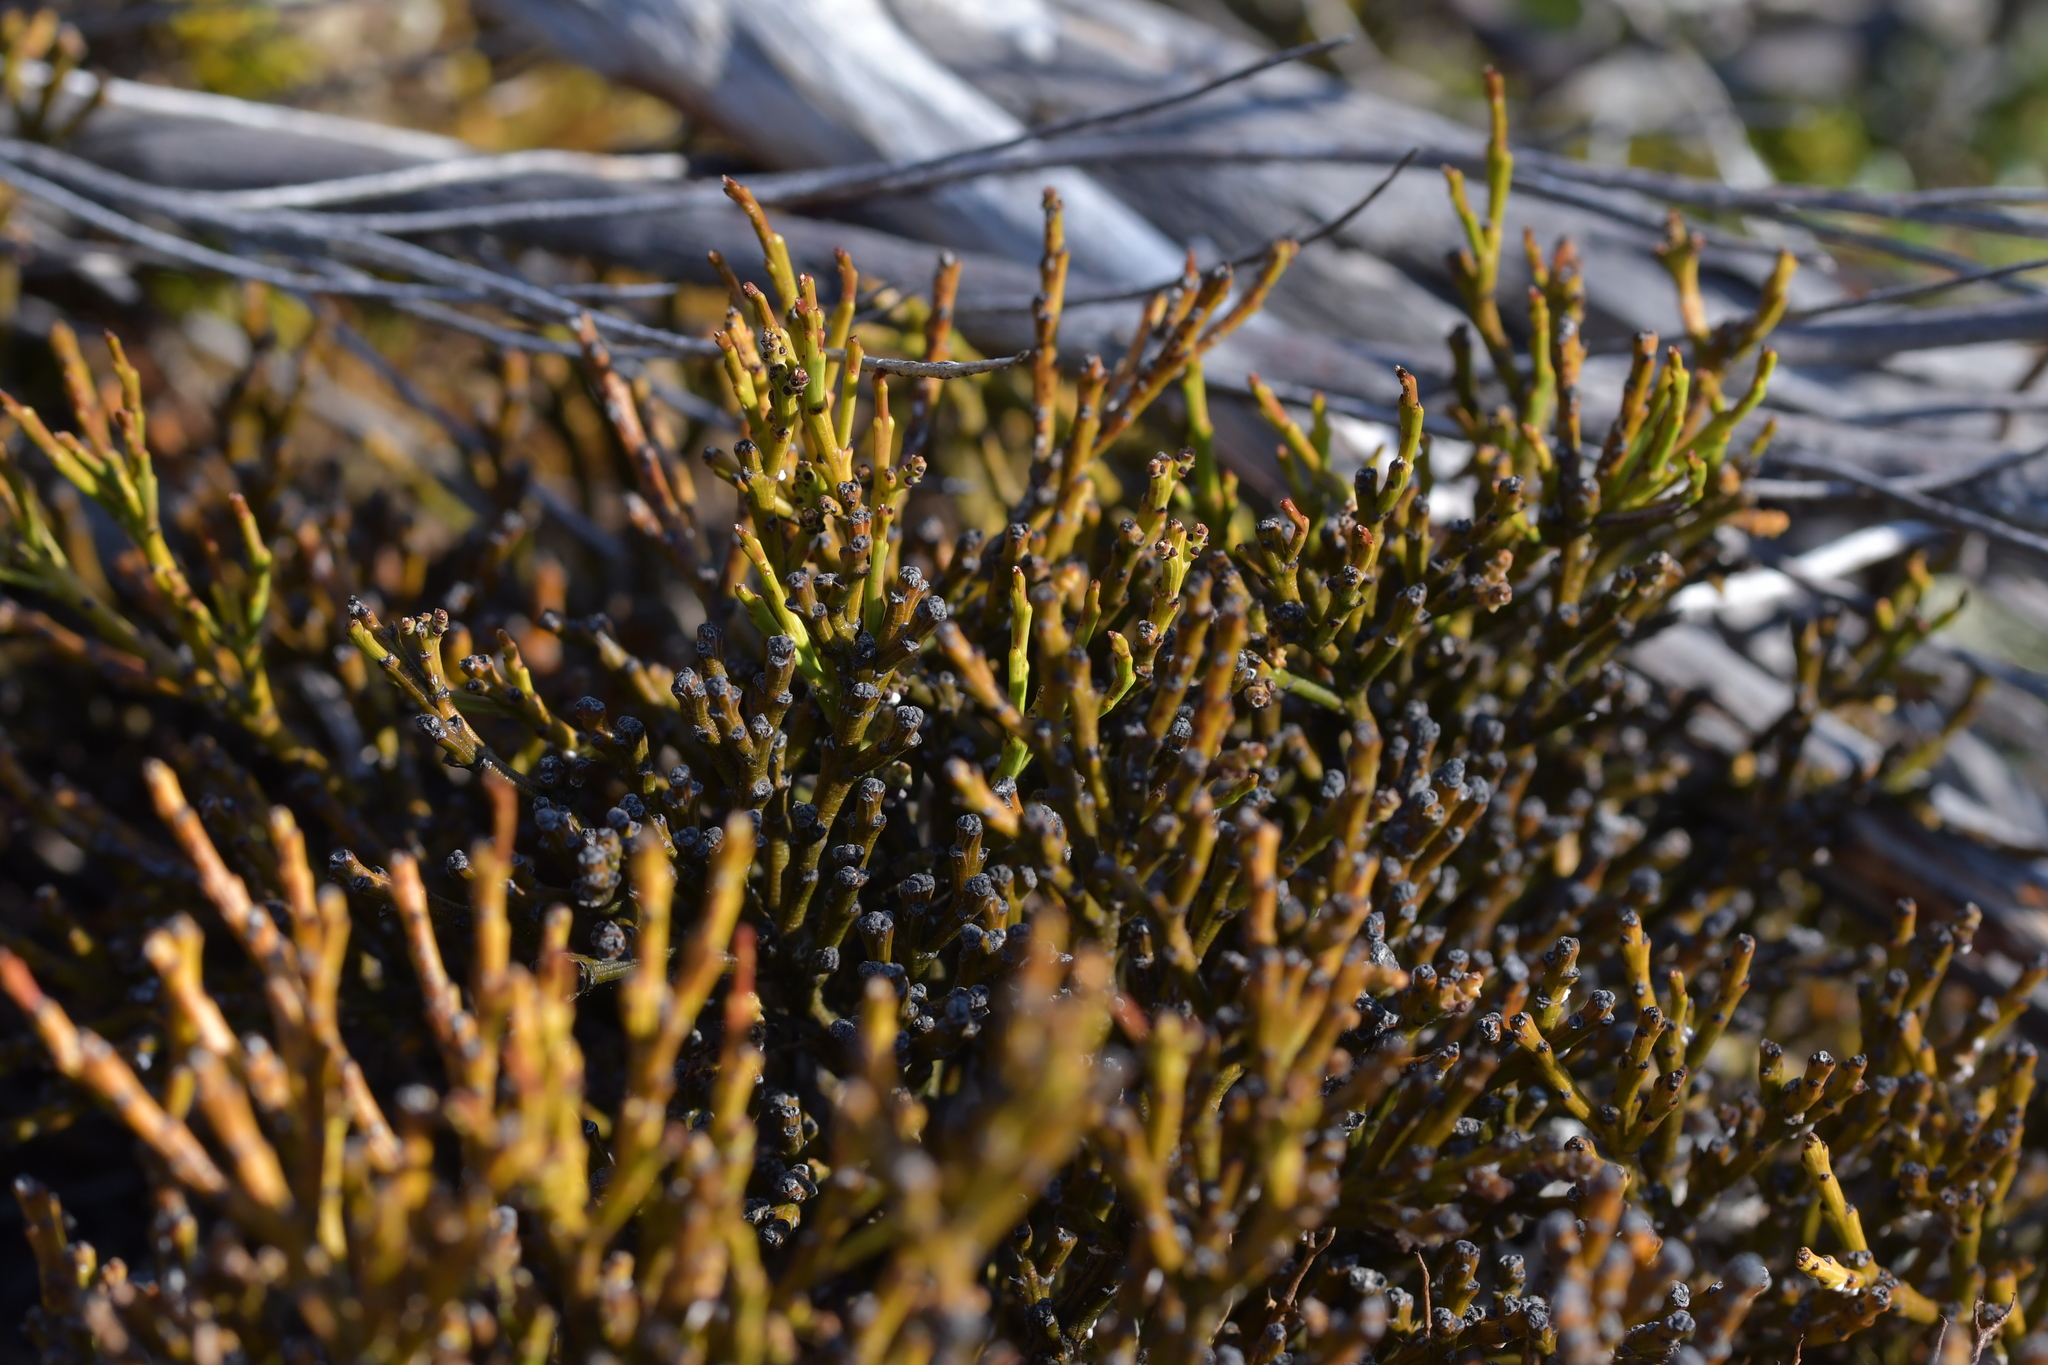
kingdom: Plantae
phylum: Tracheophyta
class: Magnoliopsida
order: Santalales
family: Santalaceae
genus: Exocarpos
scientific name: Exocarpos bidwillii
